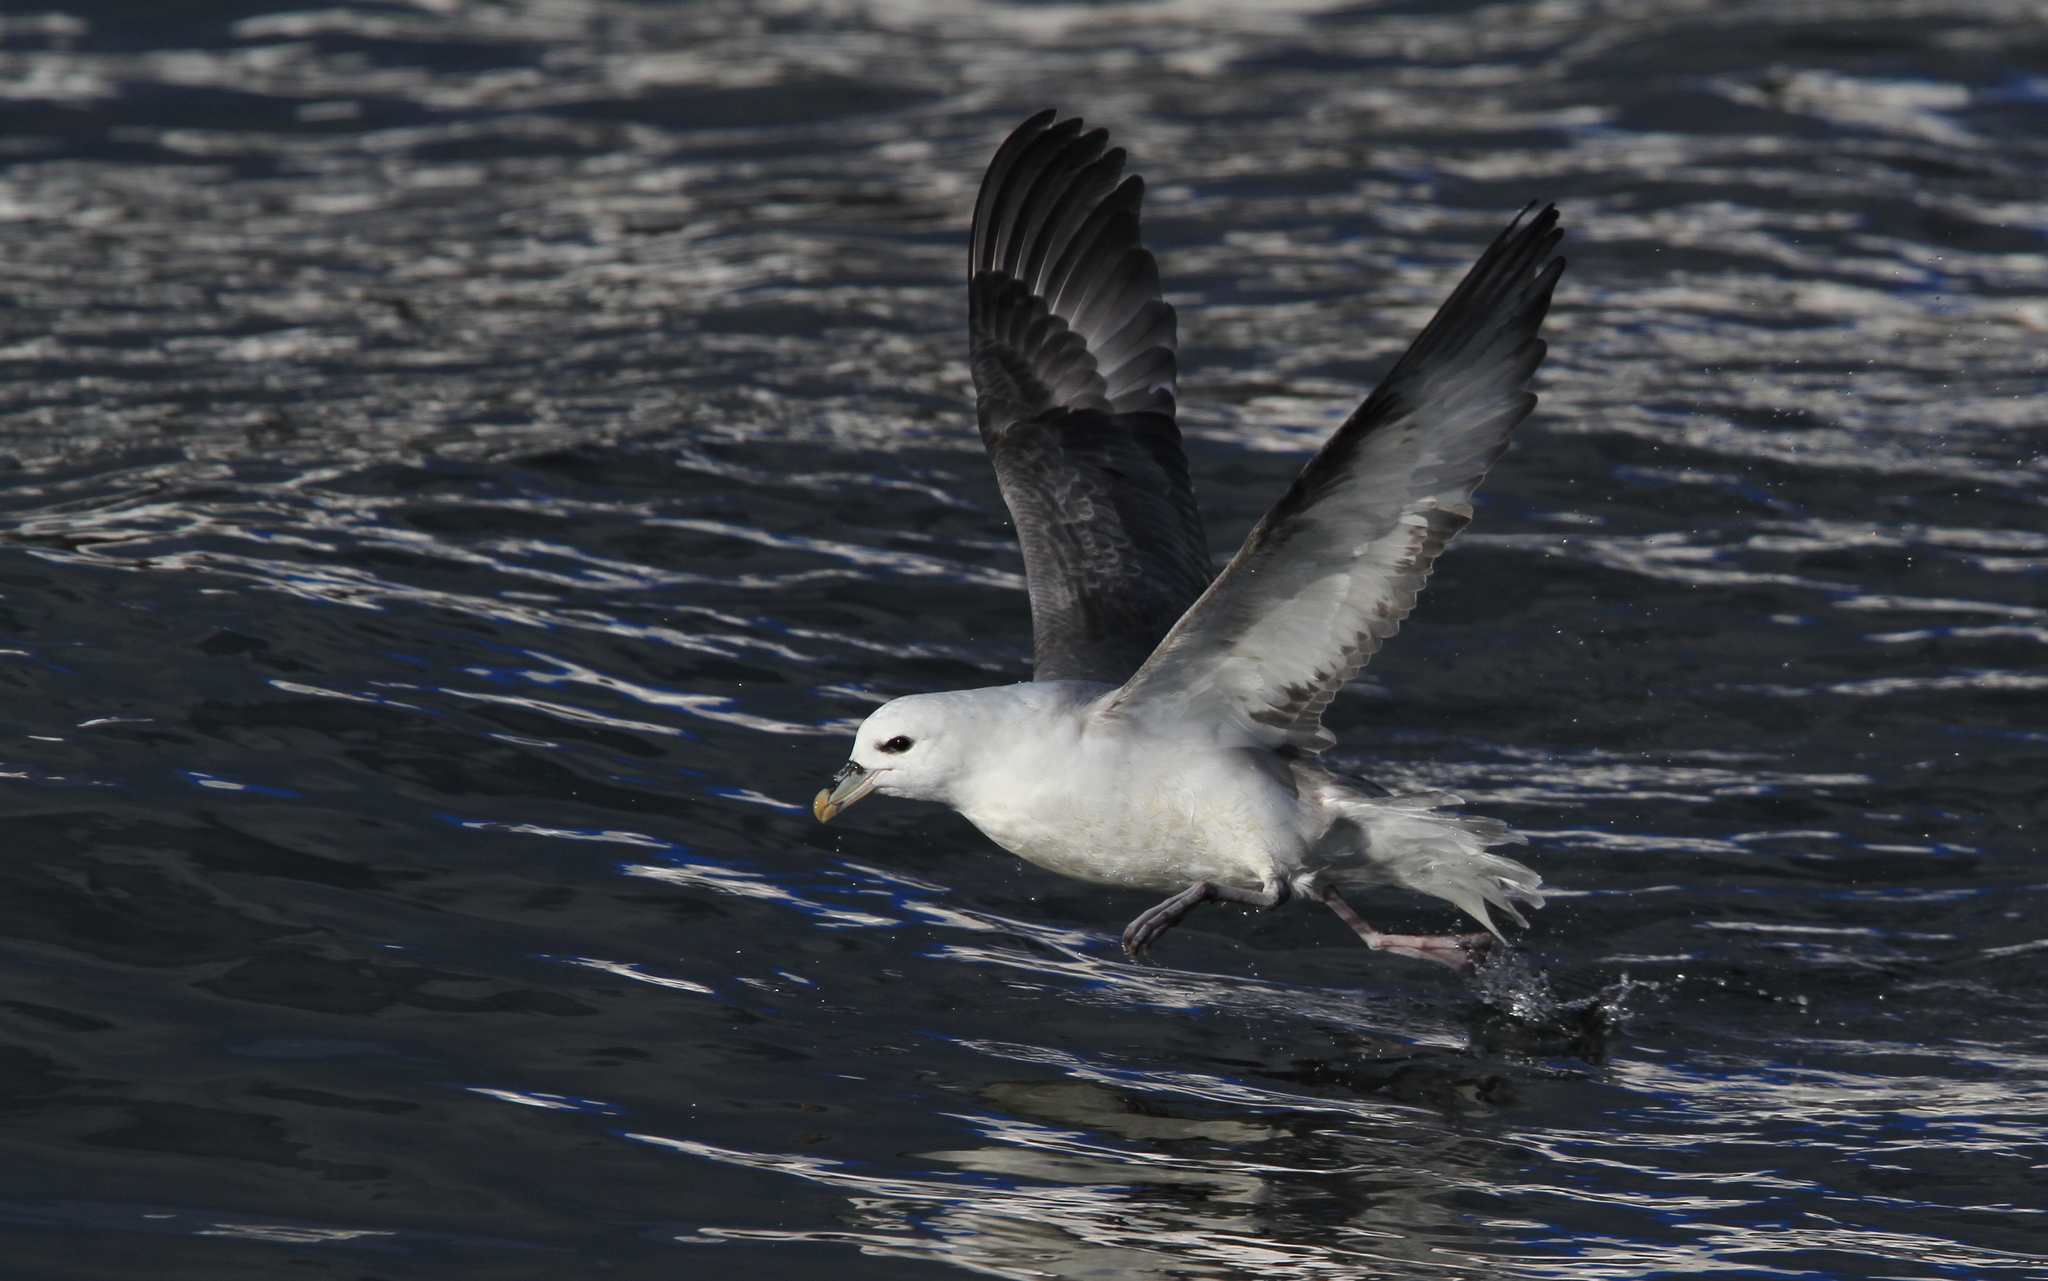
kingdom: Animalia
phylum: Chordata
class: Aves
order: Procellariiformes
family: Procellariidae
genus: Fulmarus
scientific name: Fulmarus glacialis
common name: Northern fulmar
